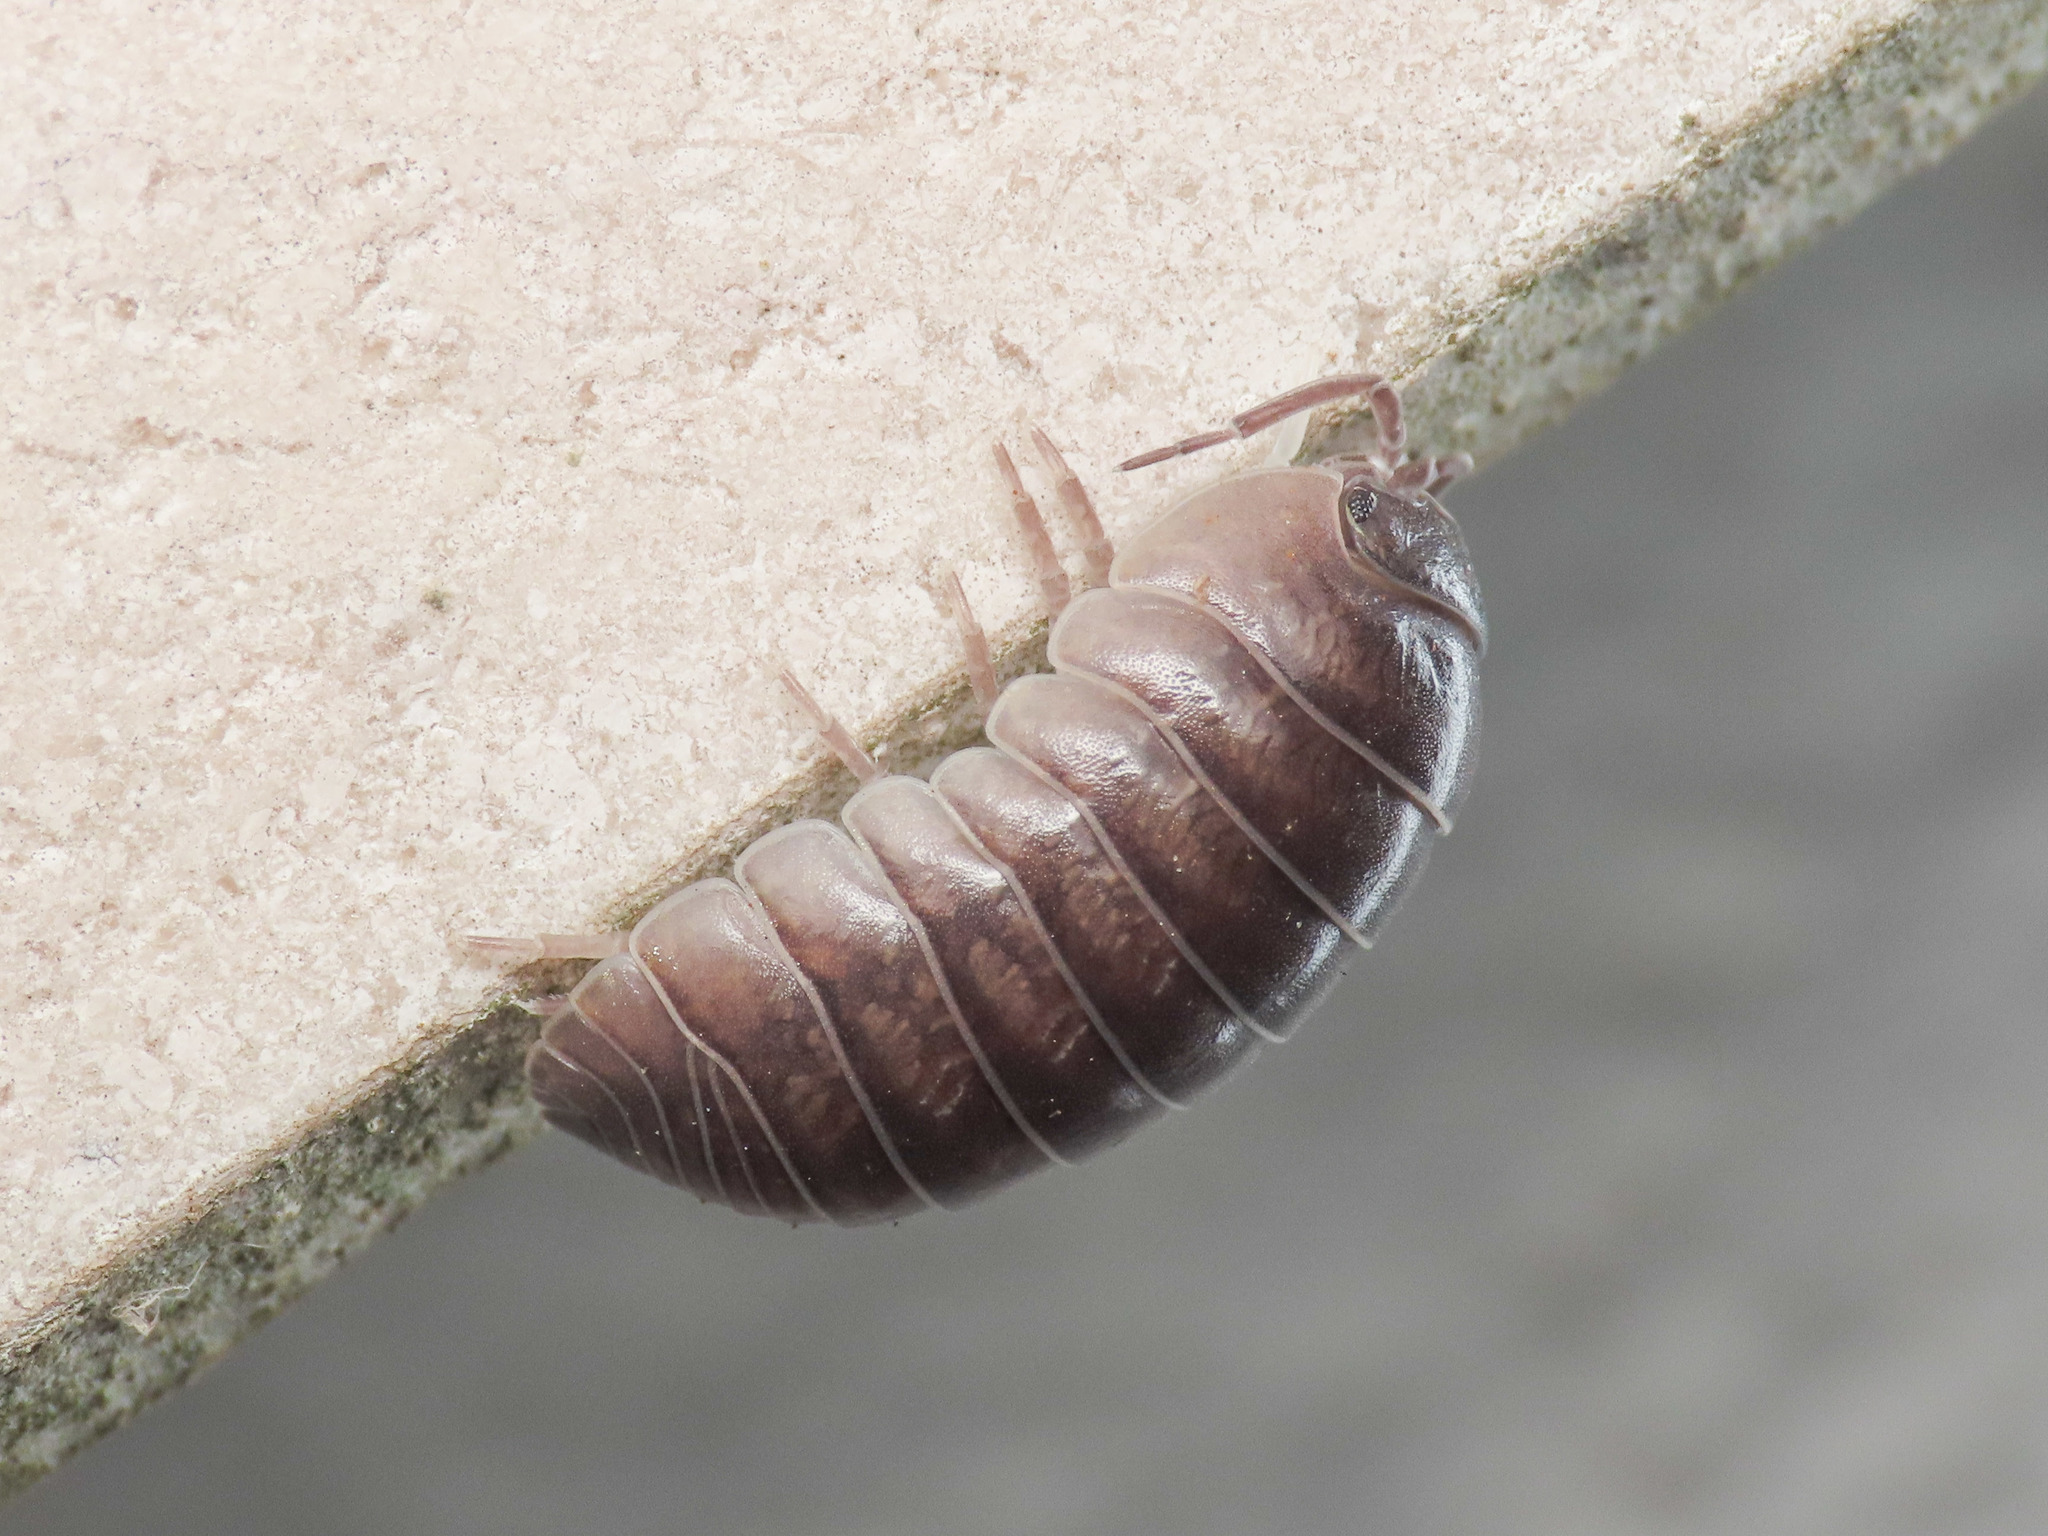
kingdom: Animalia
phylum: Arthropoda
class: Malacostraca
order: Isopoda
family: Armadillidiidae
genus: Armadillidium
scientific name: Armadillidium vulgare
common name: Common pill woodlouse
